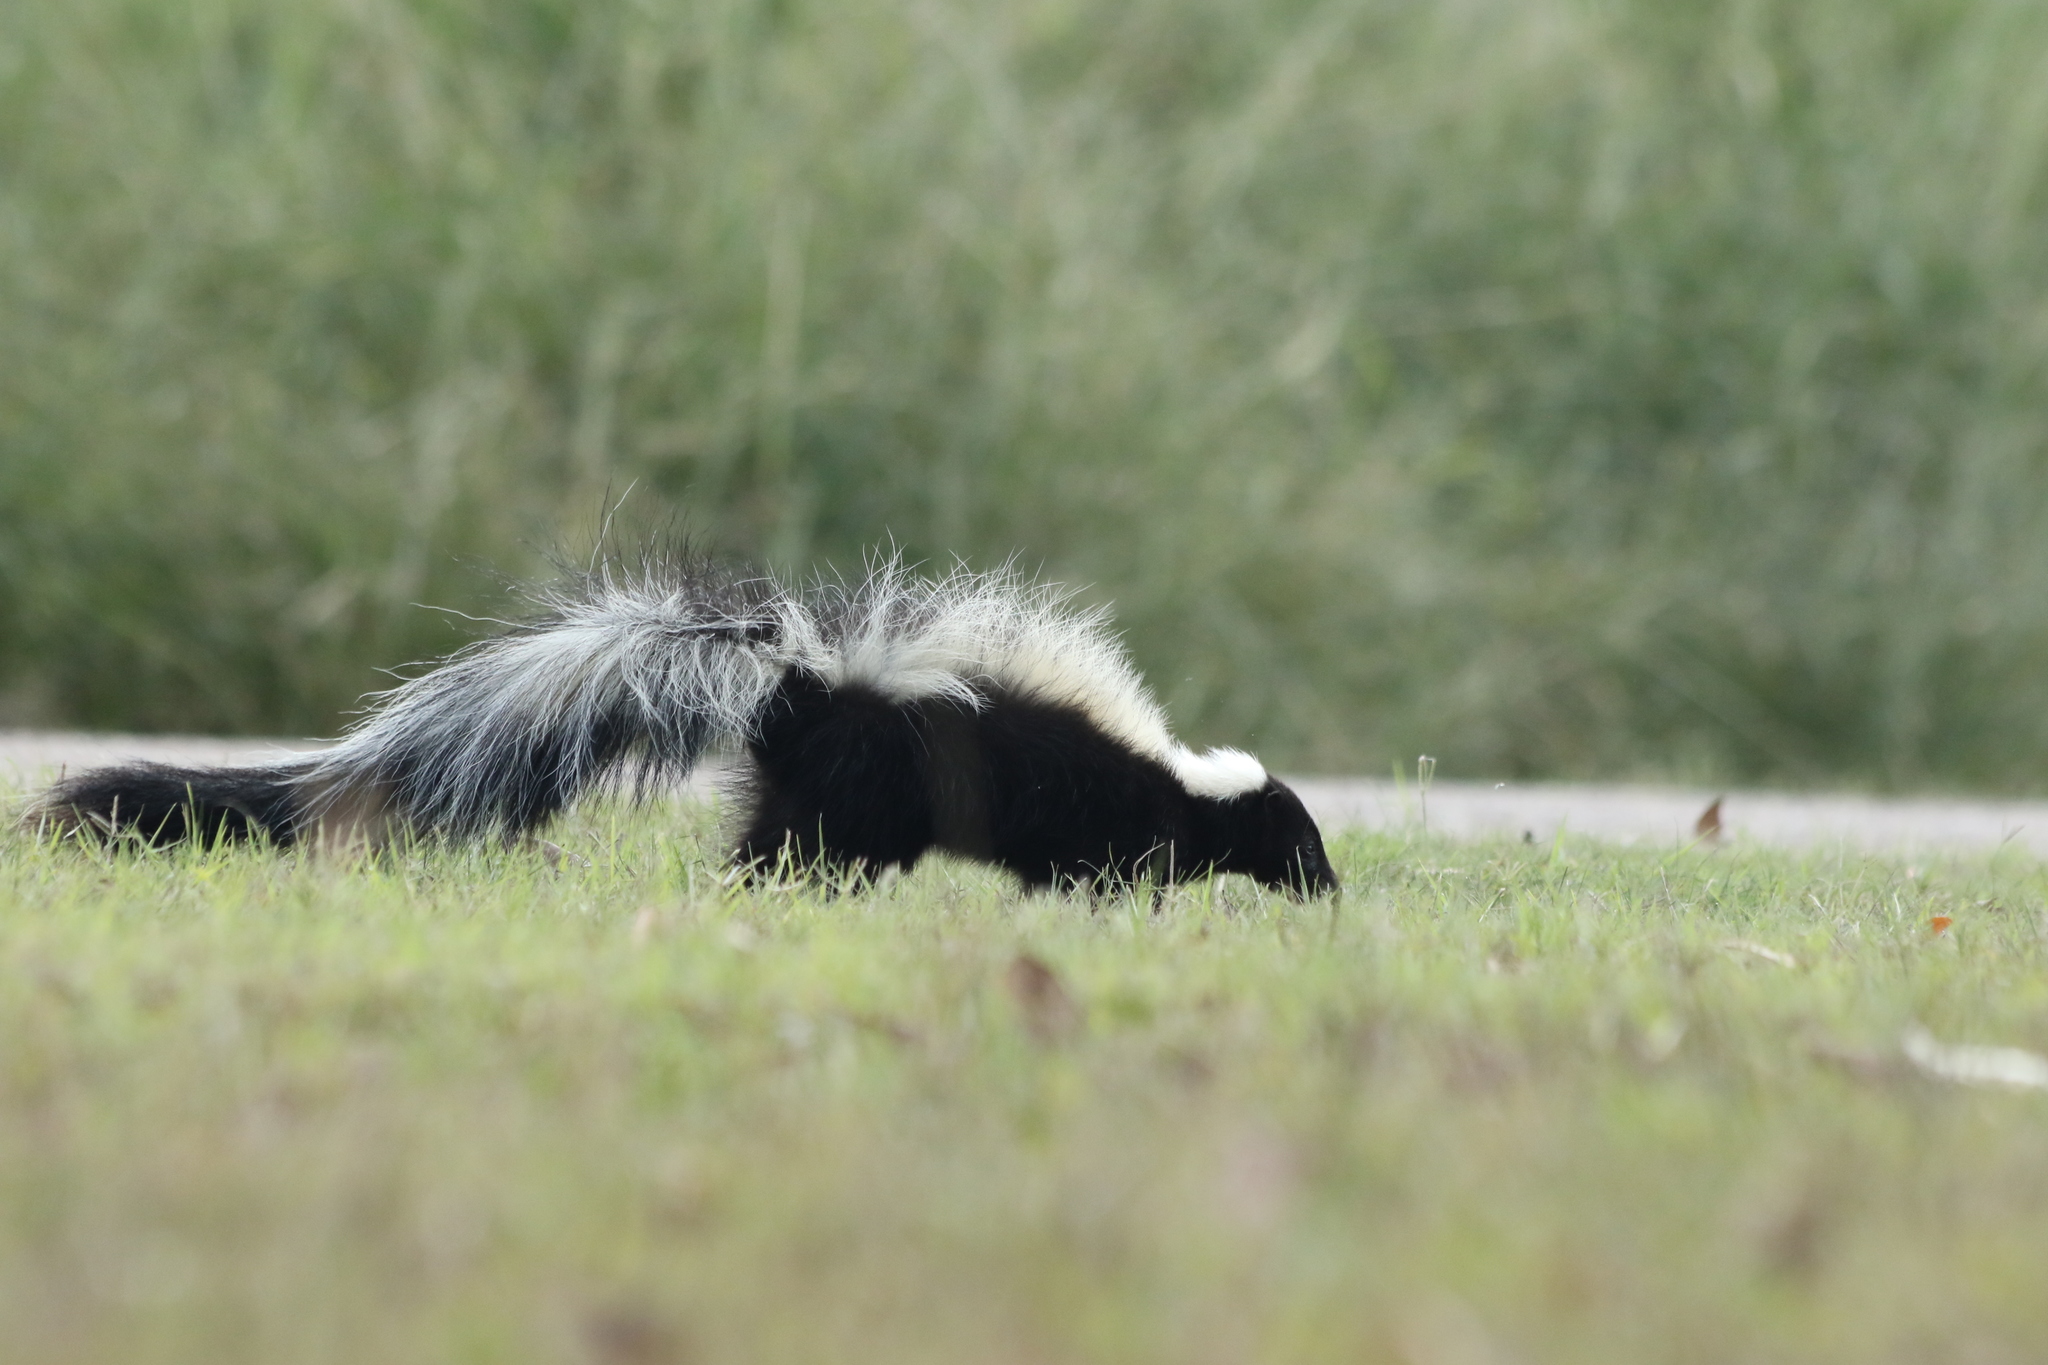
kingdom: Animalia
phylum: Chordata
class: Mammalia
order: Carnivora
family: Mephitidae
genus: Mephitis
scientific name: Mephitis mephitis
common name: Striped skunk
